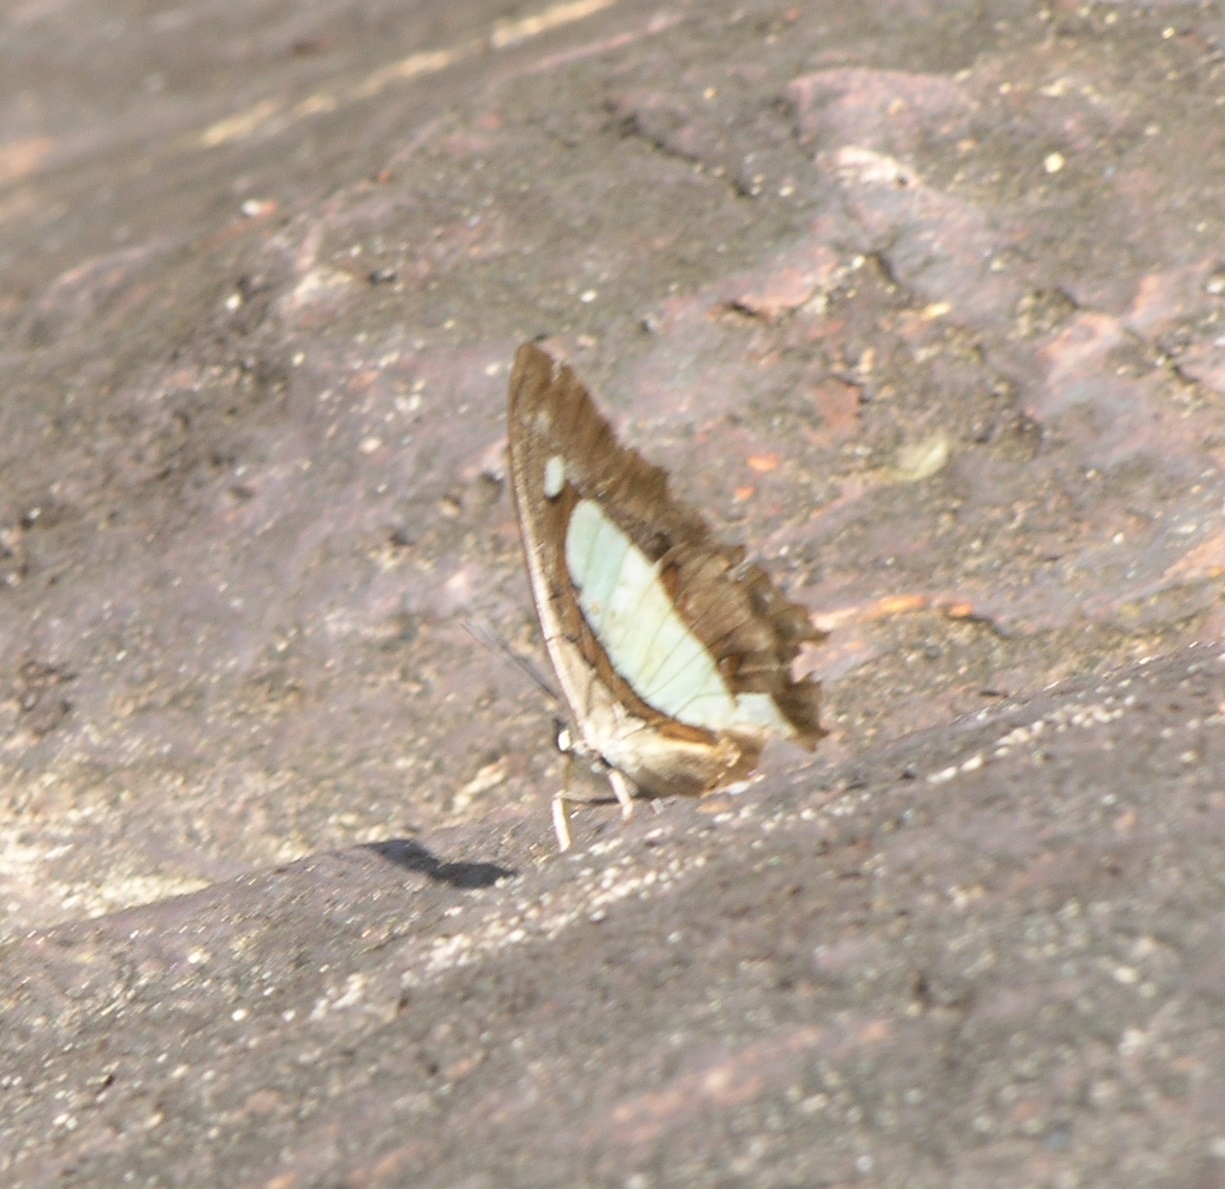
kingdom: Animalia
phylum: Arthropoda
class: Insecta
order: Lepidoptera
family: Nymphalidae
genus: Polyura
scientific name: Polyura arja
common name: Pallid nawab
